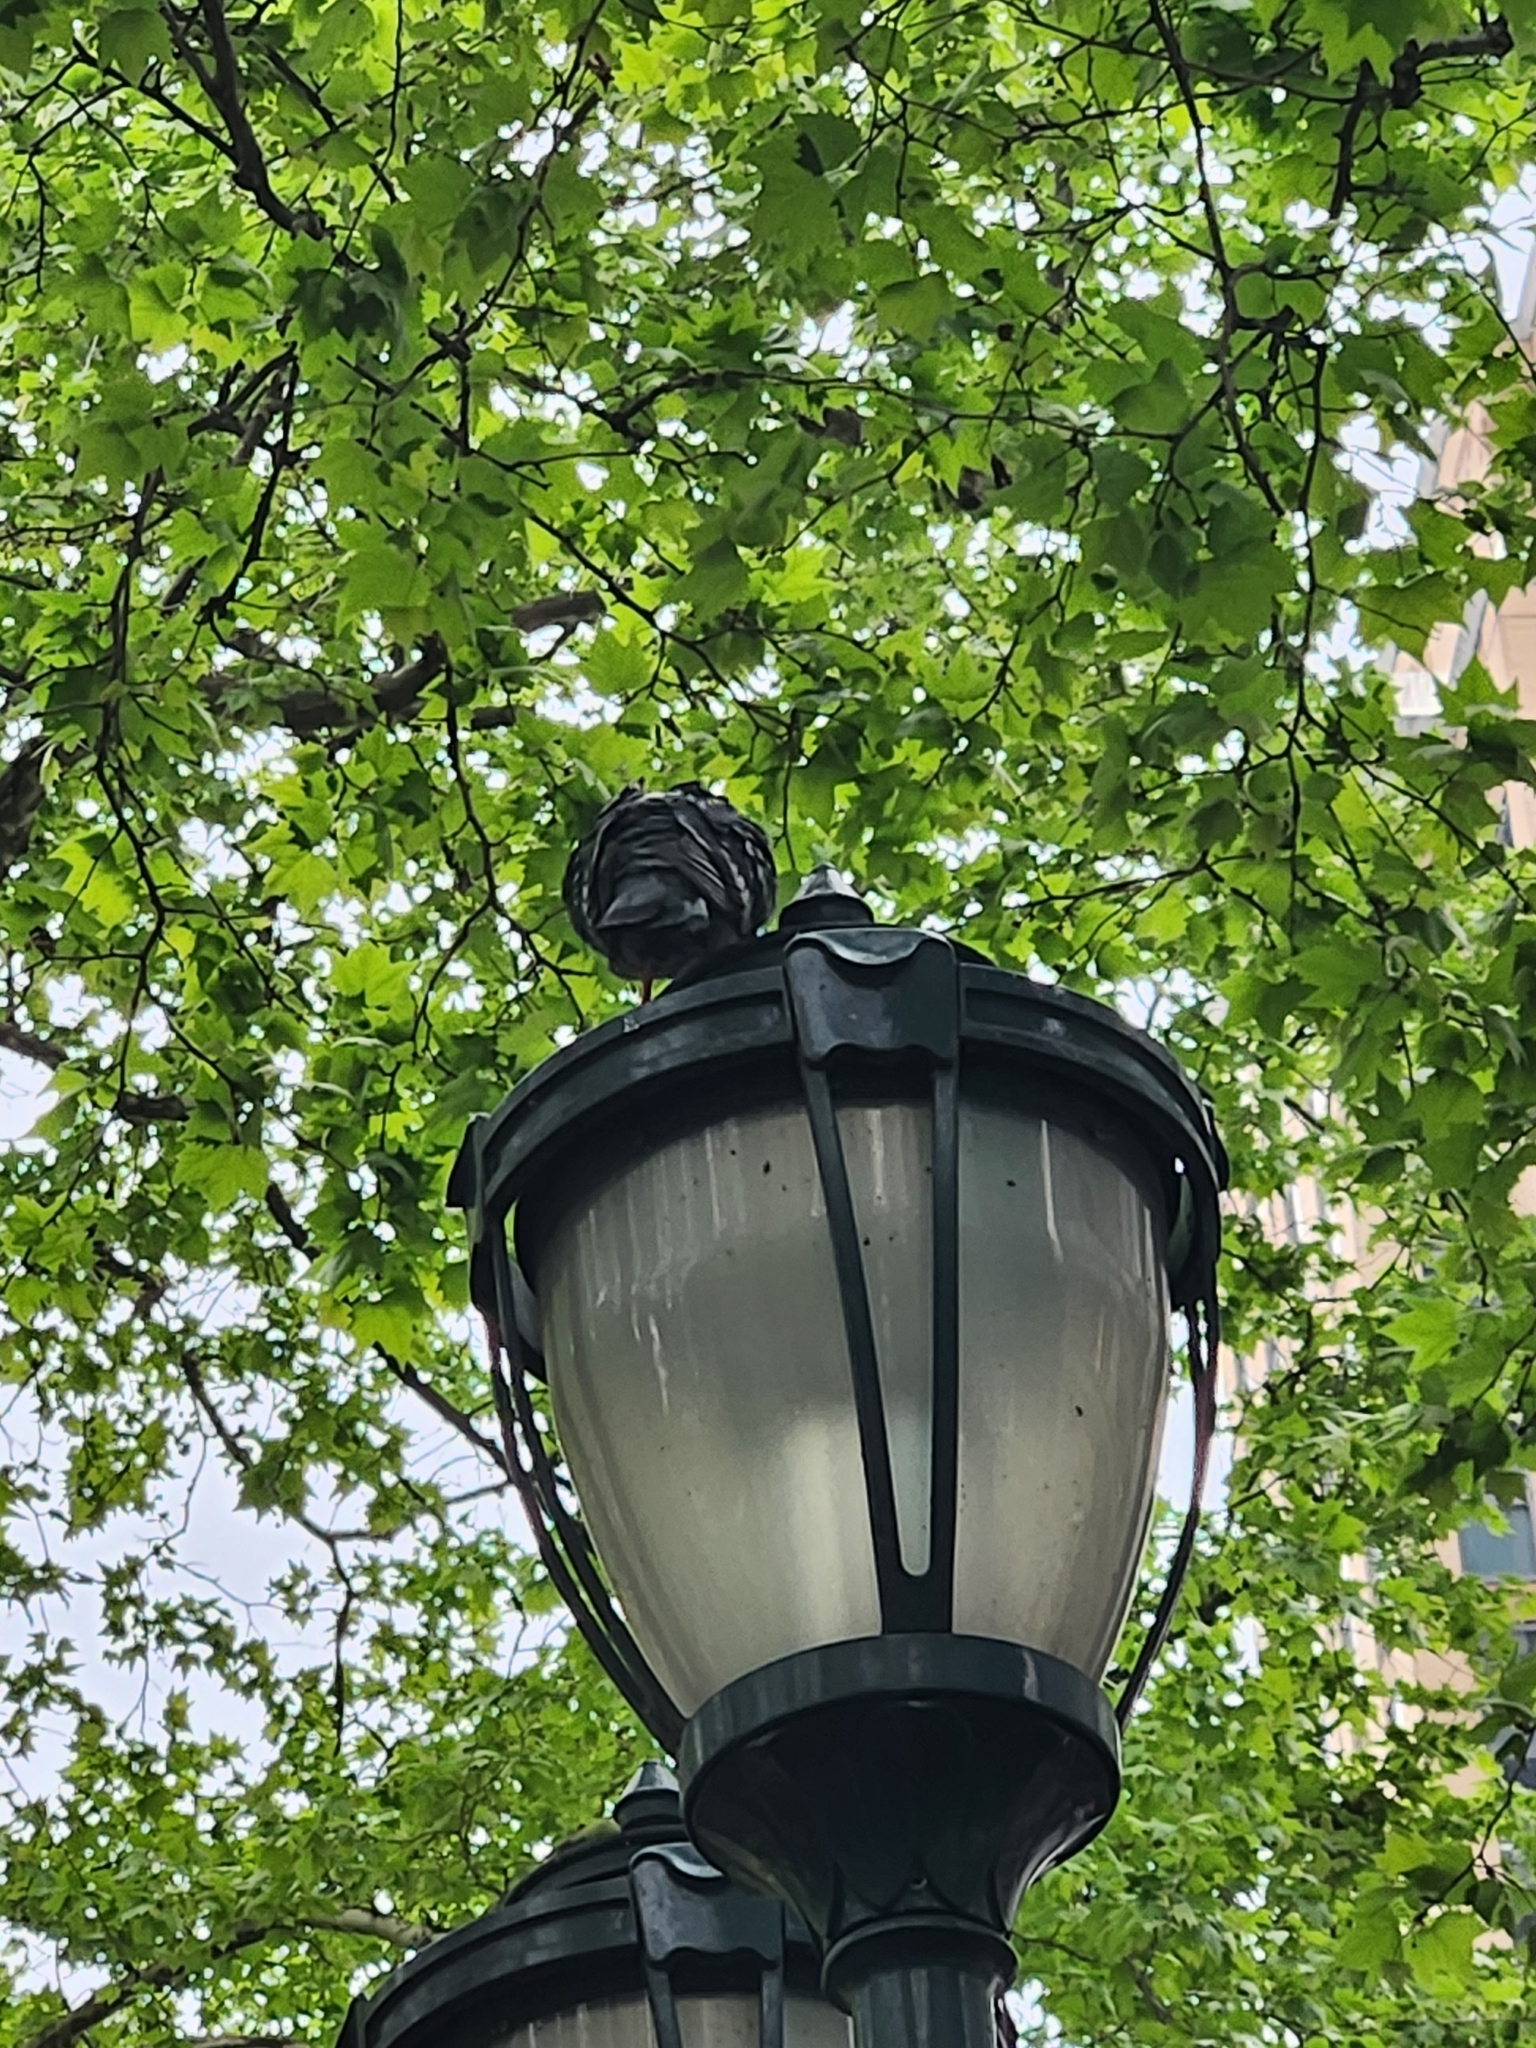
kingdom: Animalia
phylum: Chordata
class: Aves
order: Columbiformes
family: Columbidae
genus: Columba
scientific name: Columba livia
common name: Rock pigeon
